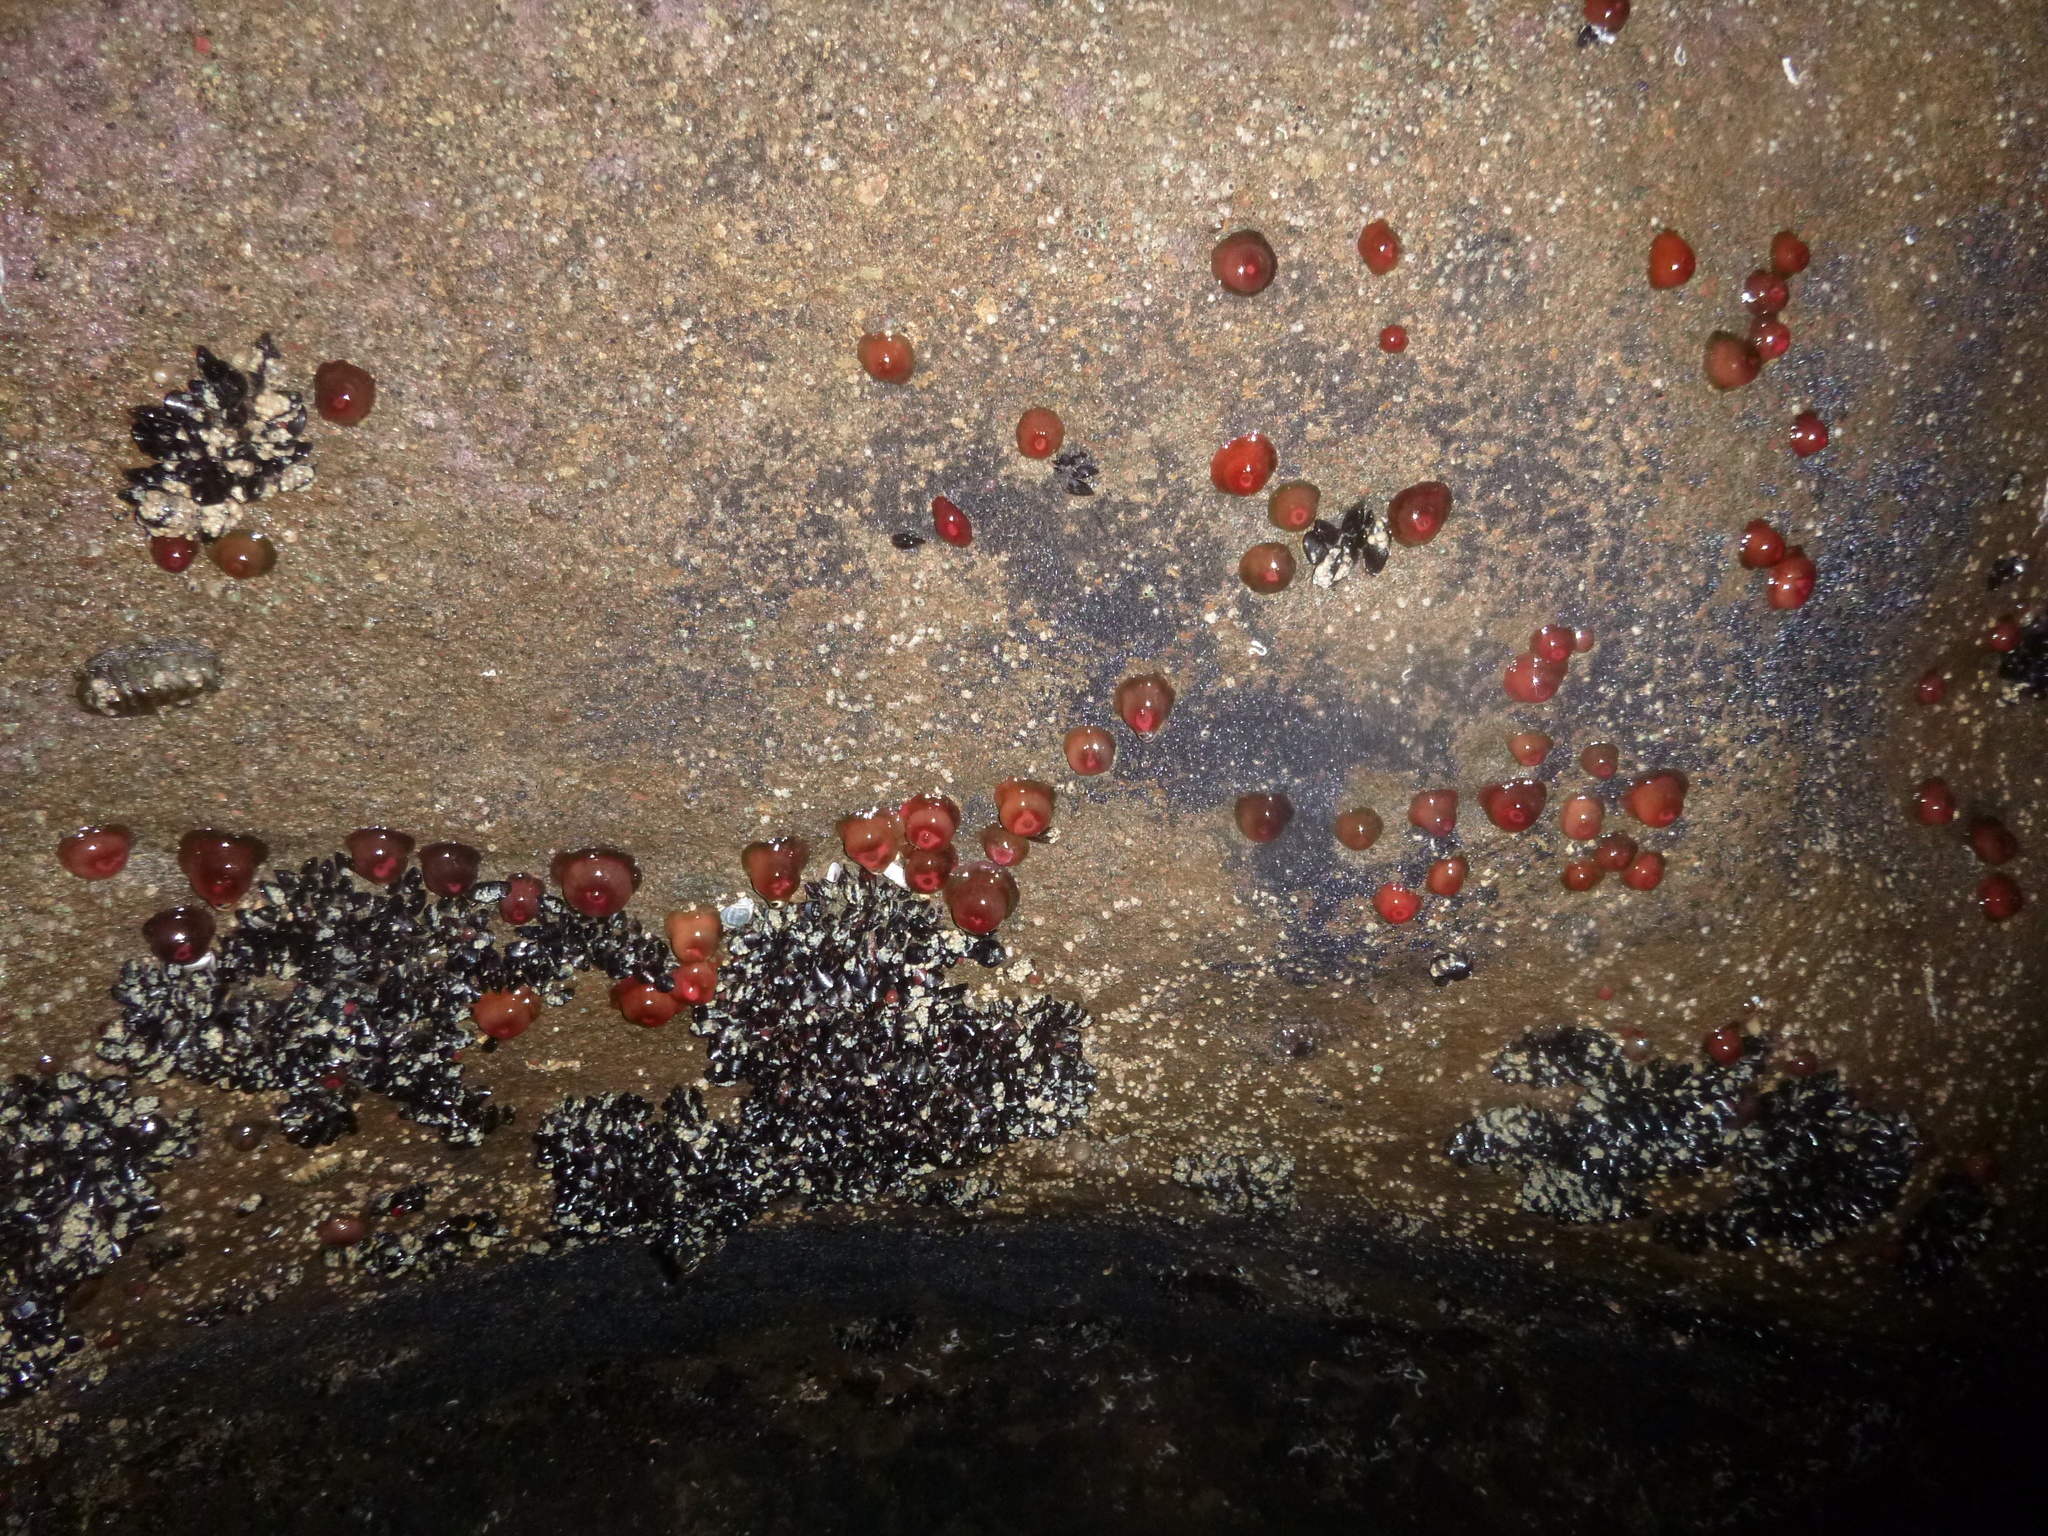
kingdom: Animalia
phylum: Cnidaria
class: Anthozoa
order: Actiniaria
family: Actiniidae
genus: Actinia
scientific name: Actinia tenebrosa
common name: Waratah anemone
